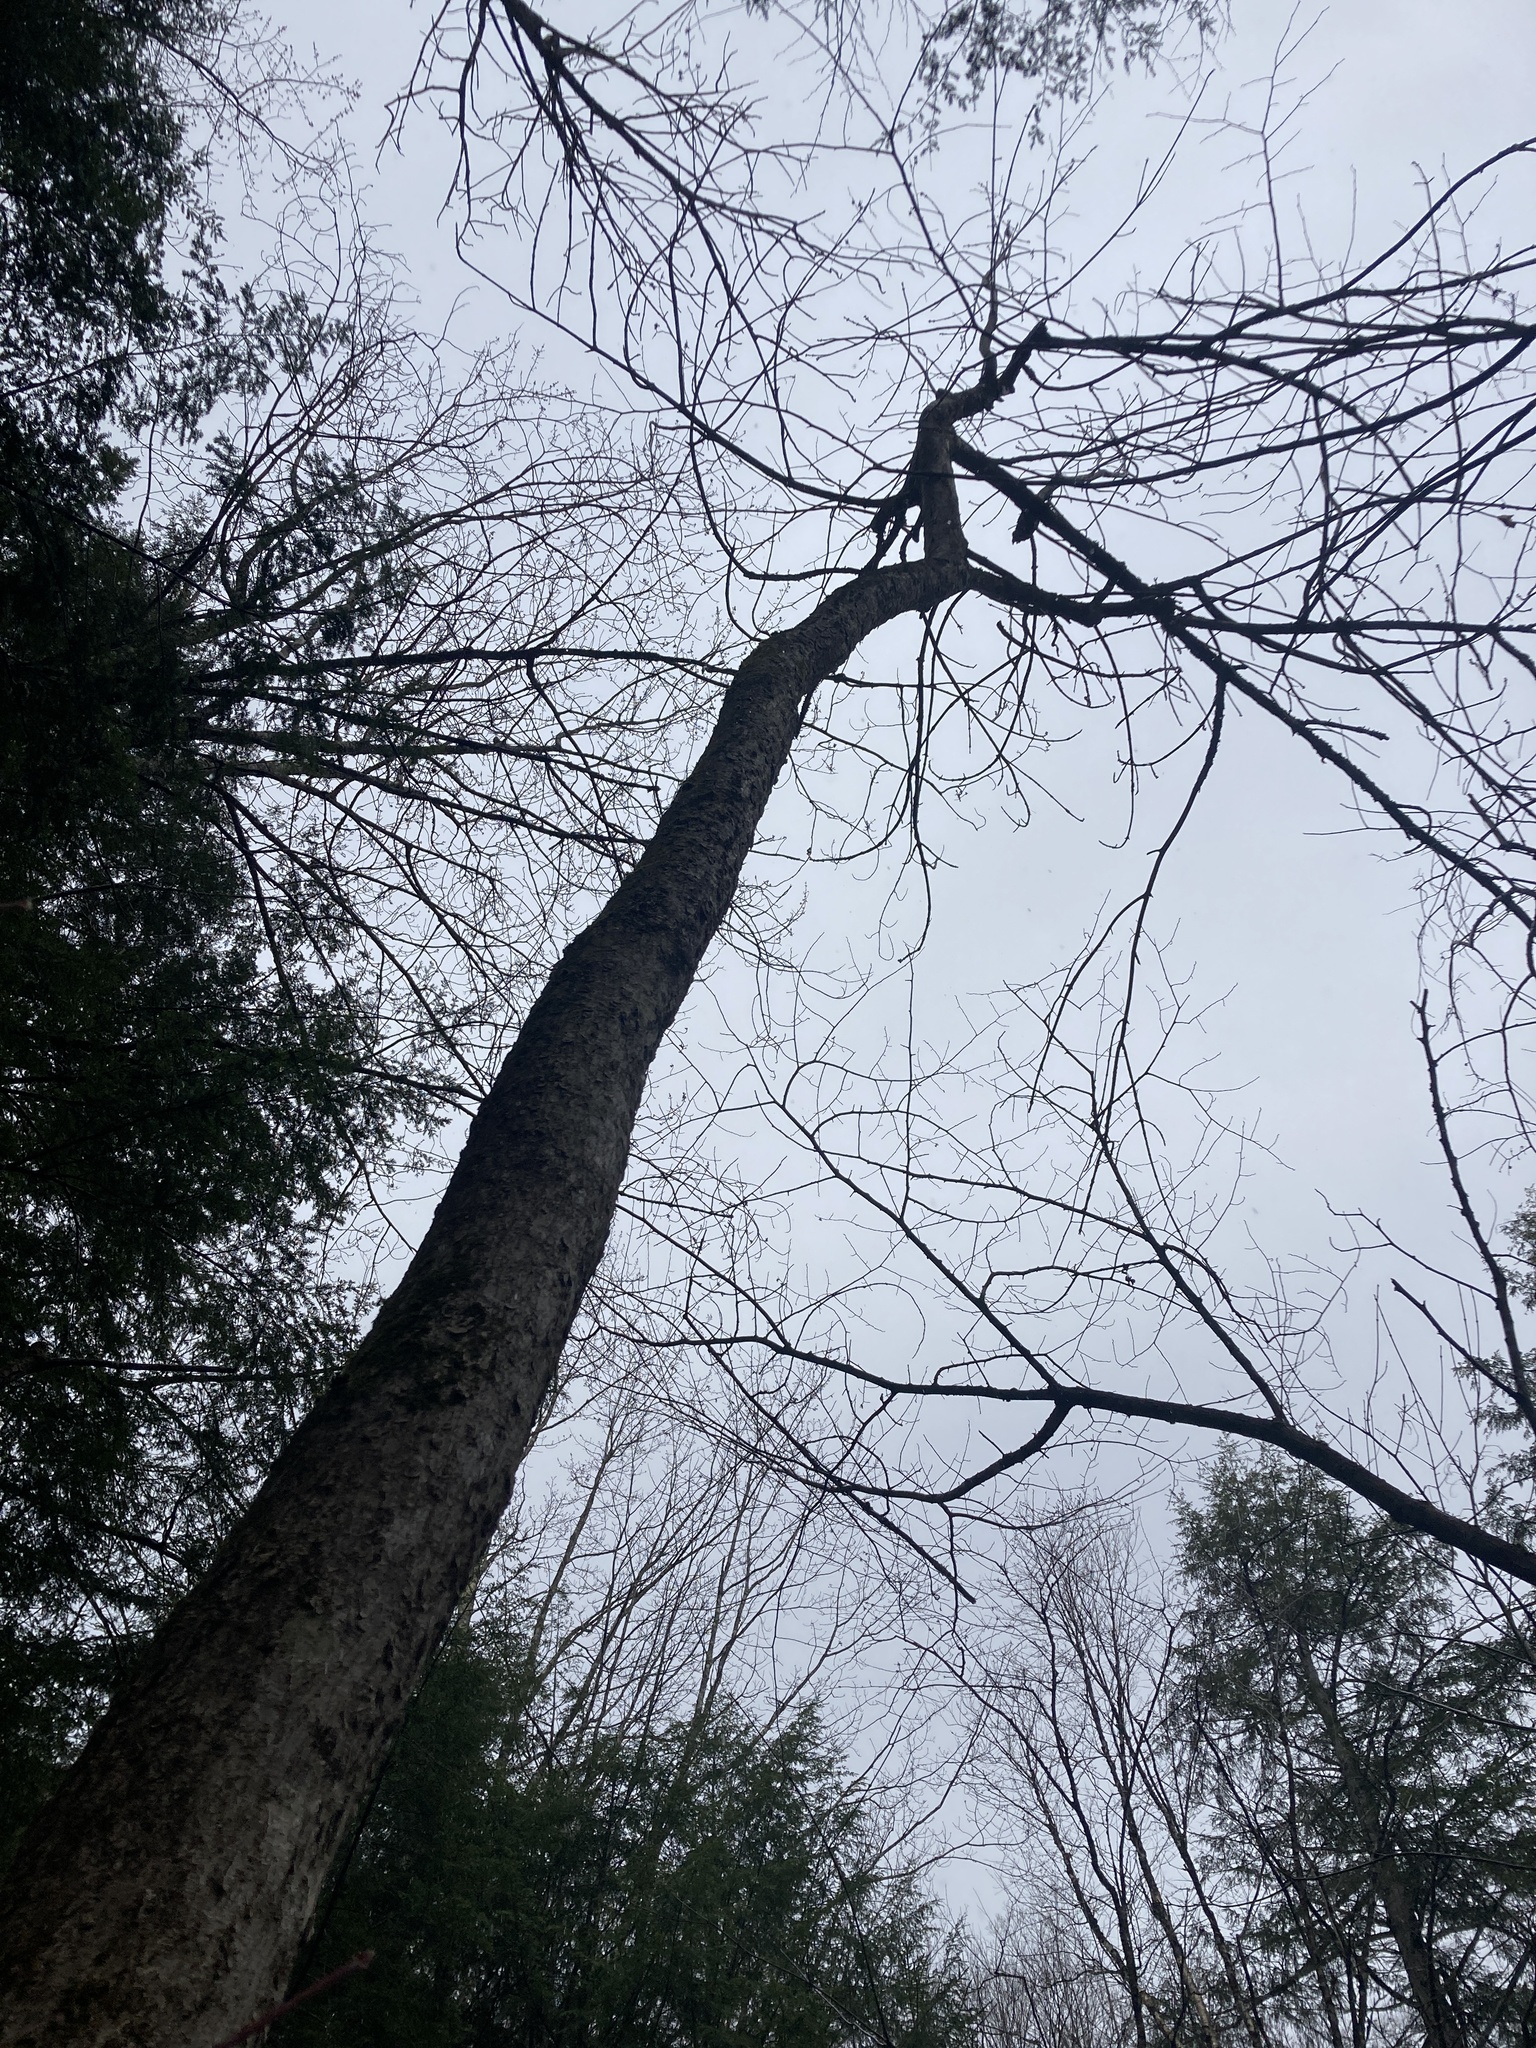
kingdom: Plantae
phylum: Tracheophyta
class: Magnoliopsida
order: Lamiales
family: Oleaceae
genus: Fraxinus
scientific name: Fraxinus nigra
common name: Black ash
